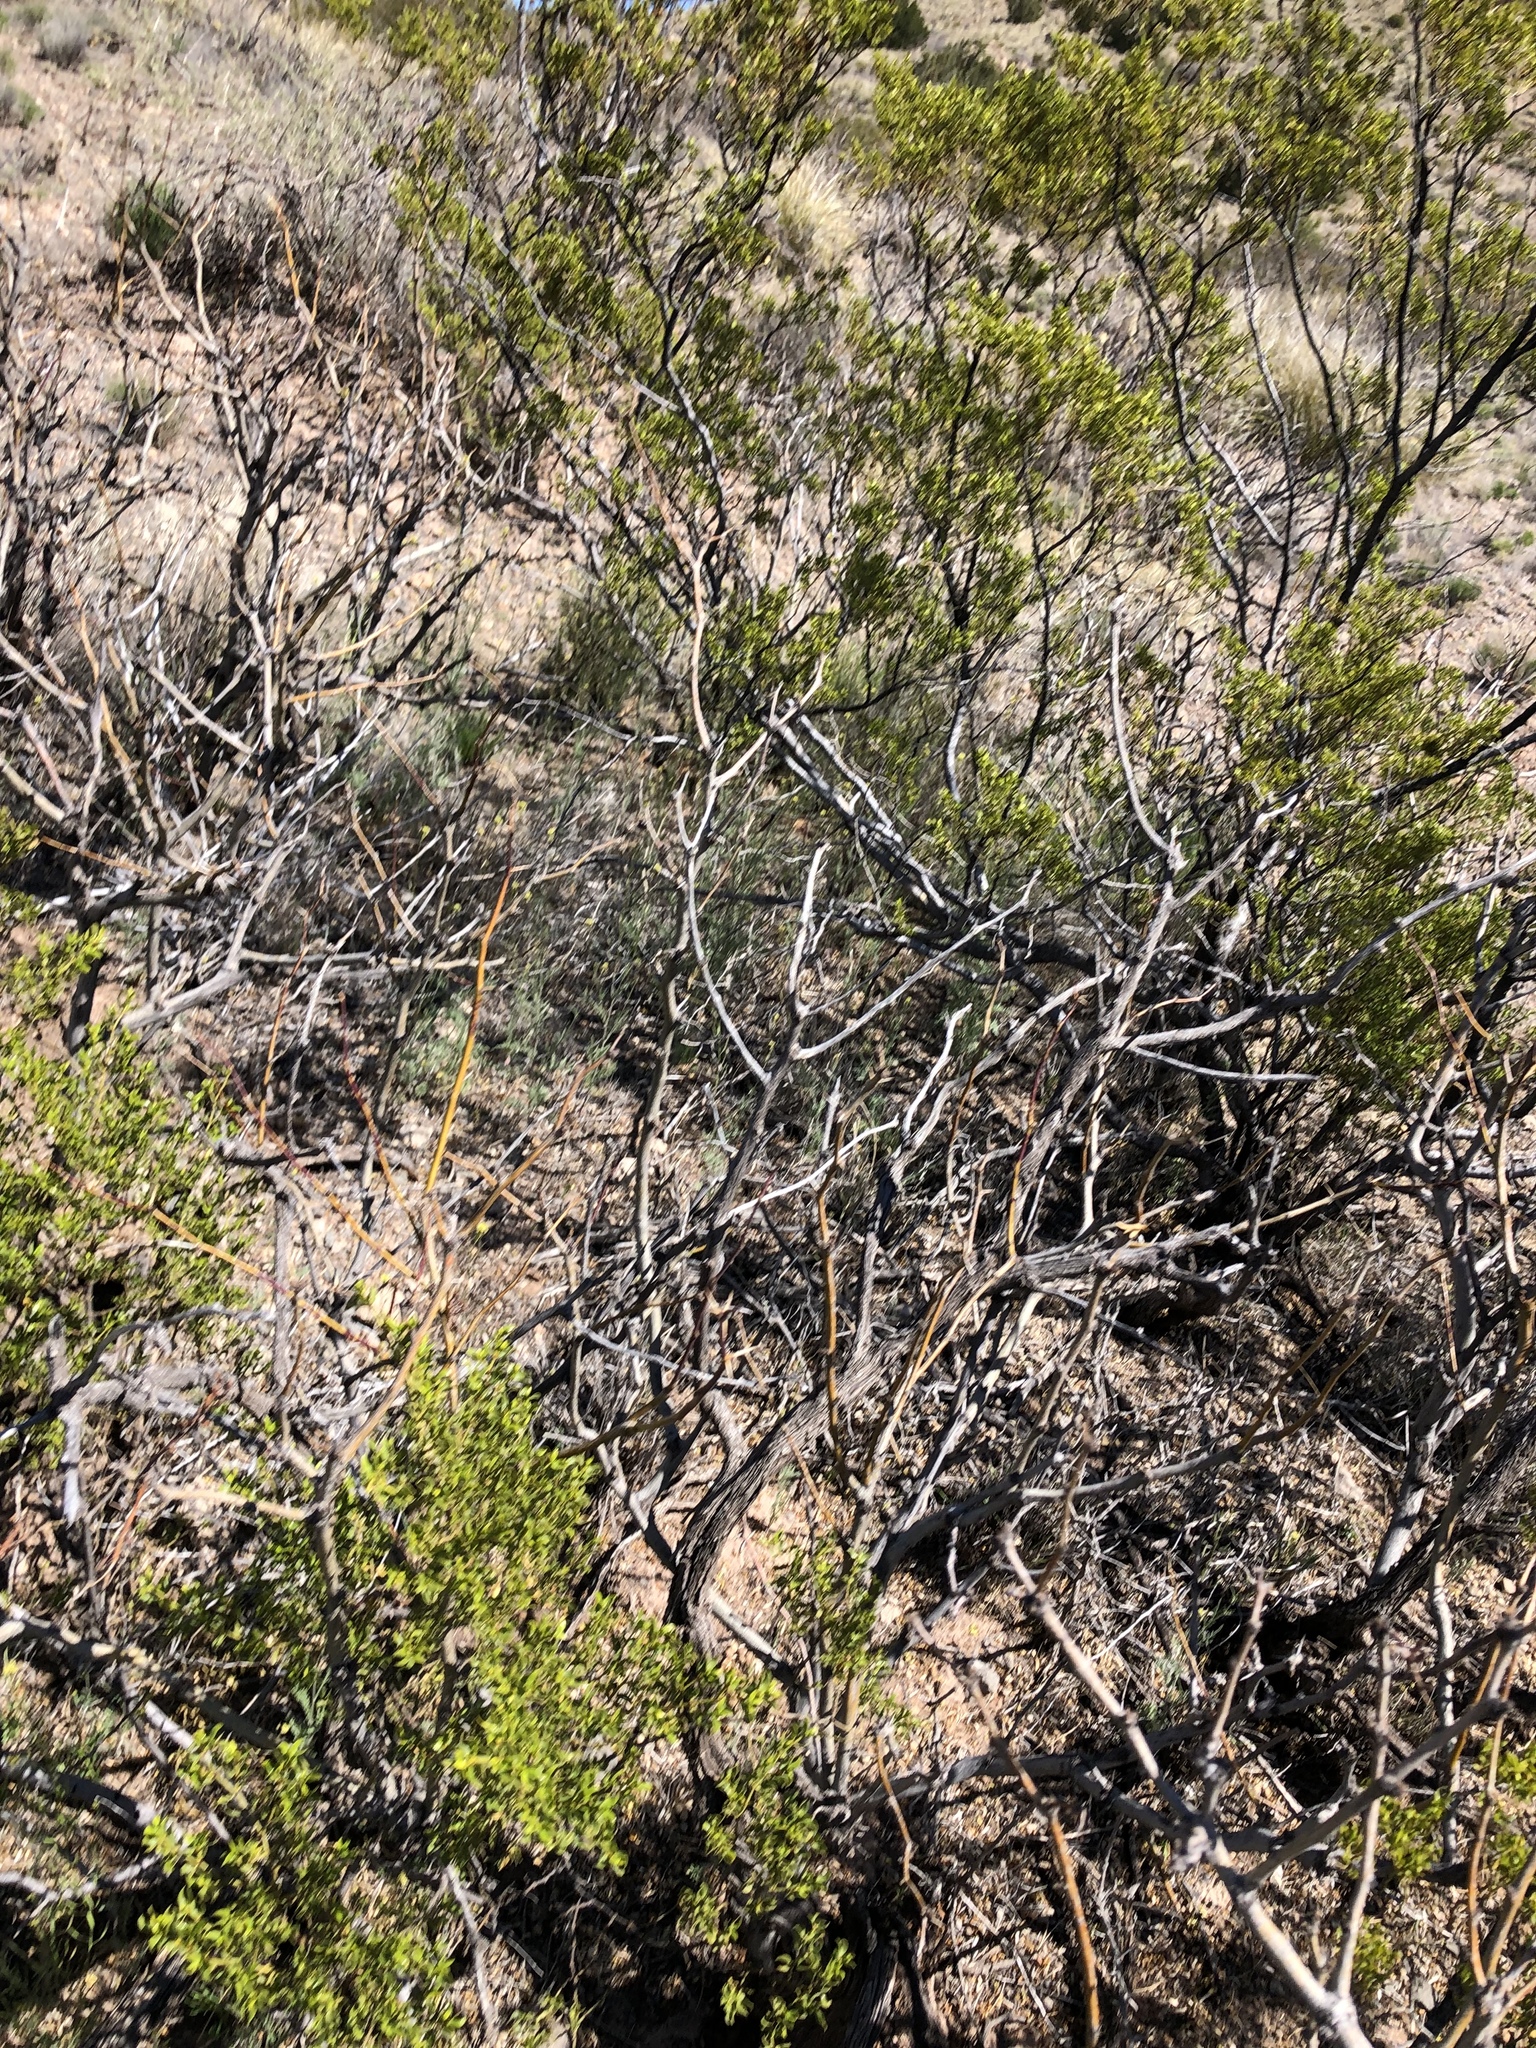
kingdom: Plantae
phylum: Tracheophyta
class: Magnoliopsida
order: Zygophyllales
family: Zygophyllaceae
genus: Larrea
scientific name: Larrea tridentata
